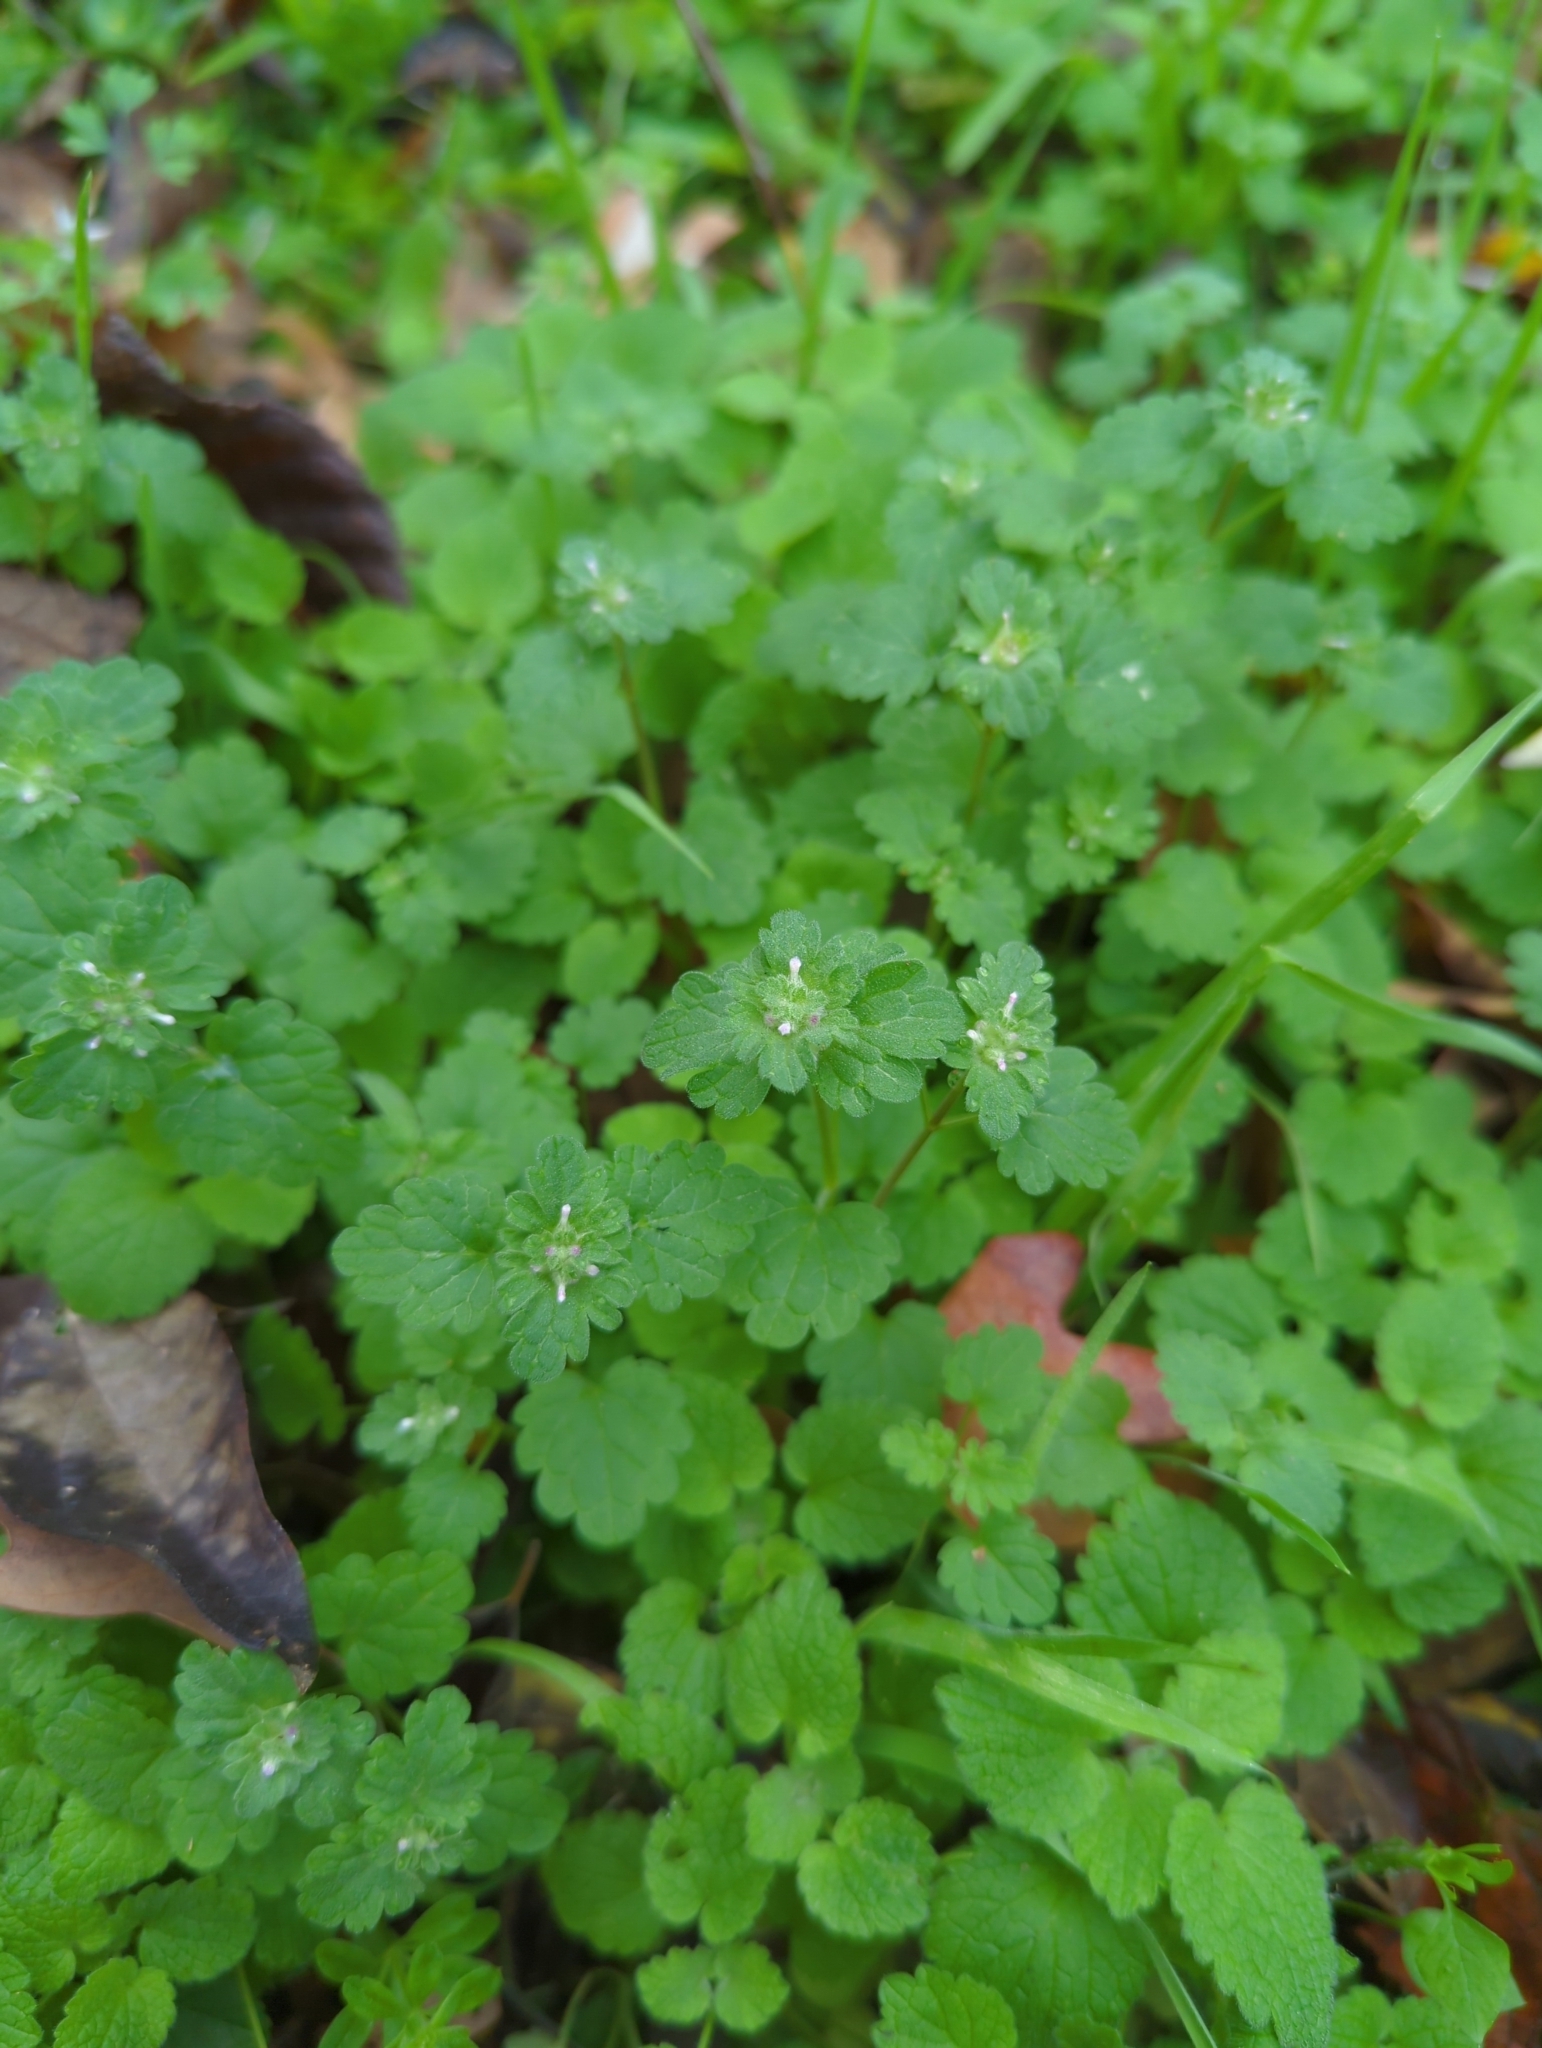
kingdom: Plantae
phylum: Tracheophyta
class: Magnoliopsida
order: Lamiales
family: Lamiaceae
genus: Lamium
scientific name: Lamium amplexicaule
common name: Henbit dead-nettle
